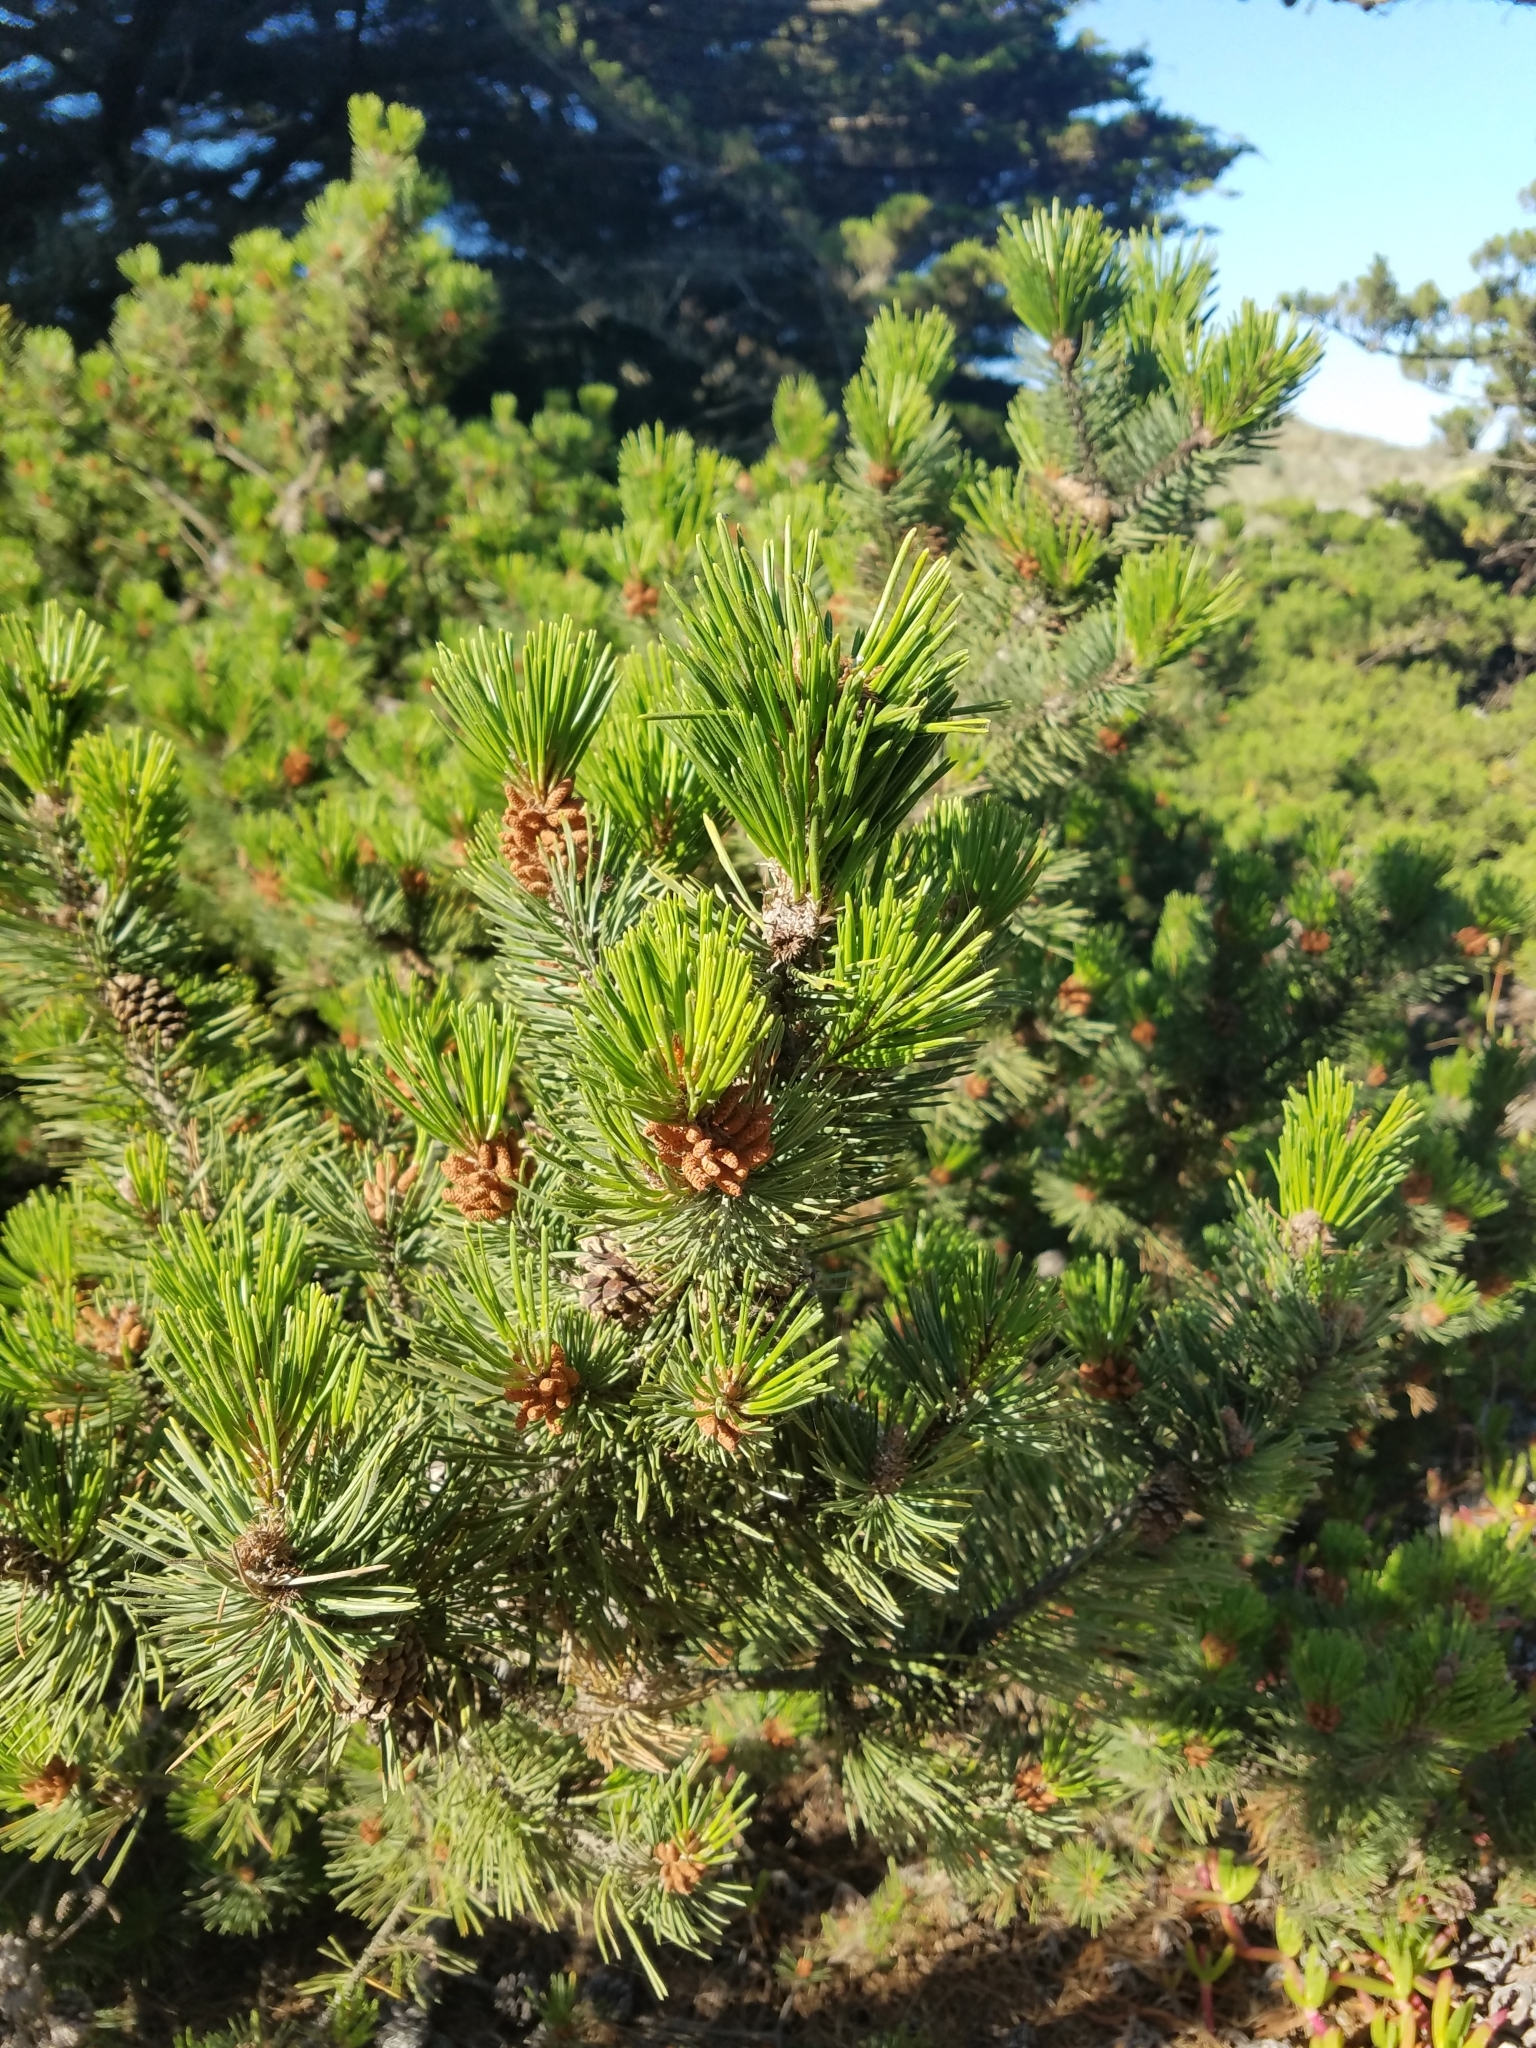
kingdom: Plantae
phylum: Tracheophyta
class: Pinopsida
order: Pinales
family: Pinaceae
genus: Pinus
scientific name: Pinus contorta
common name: Lodgepole pine
